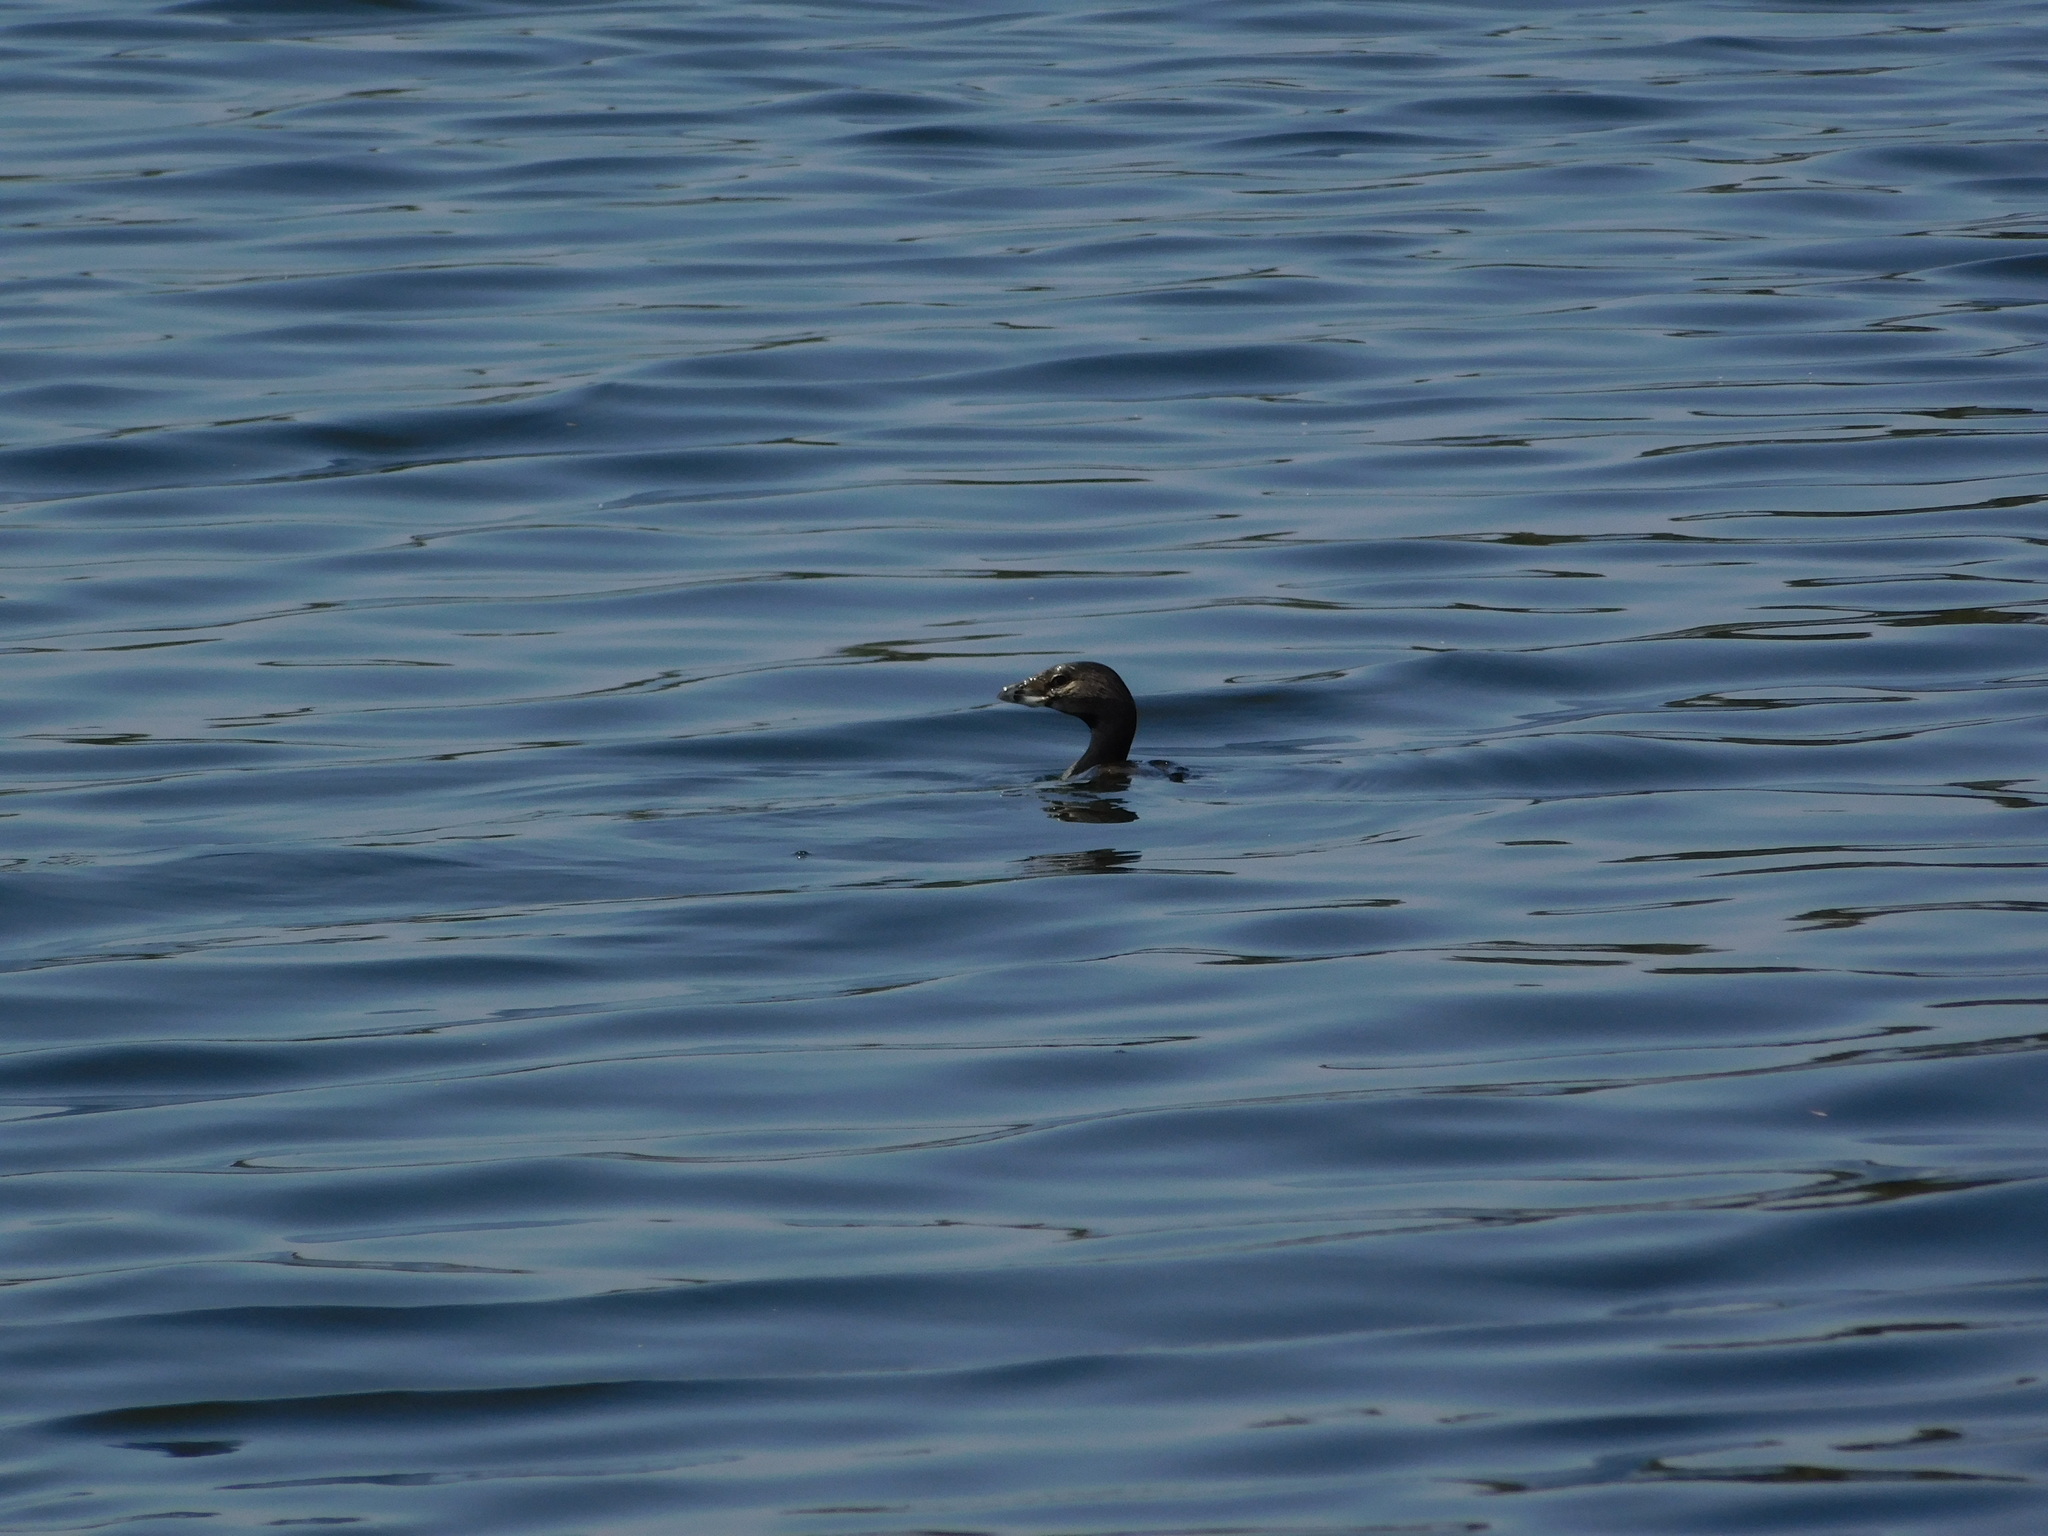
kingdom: Animalia
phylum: Chordata
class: Aves
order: Podicipediformes
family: Podicipedidae
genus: Podilymbus
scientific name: Podilymbus podiceps
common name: Pied-billed grebe
